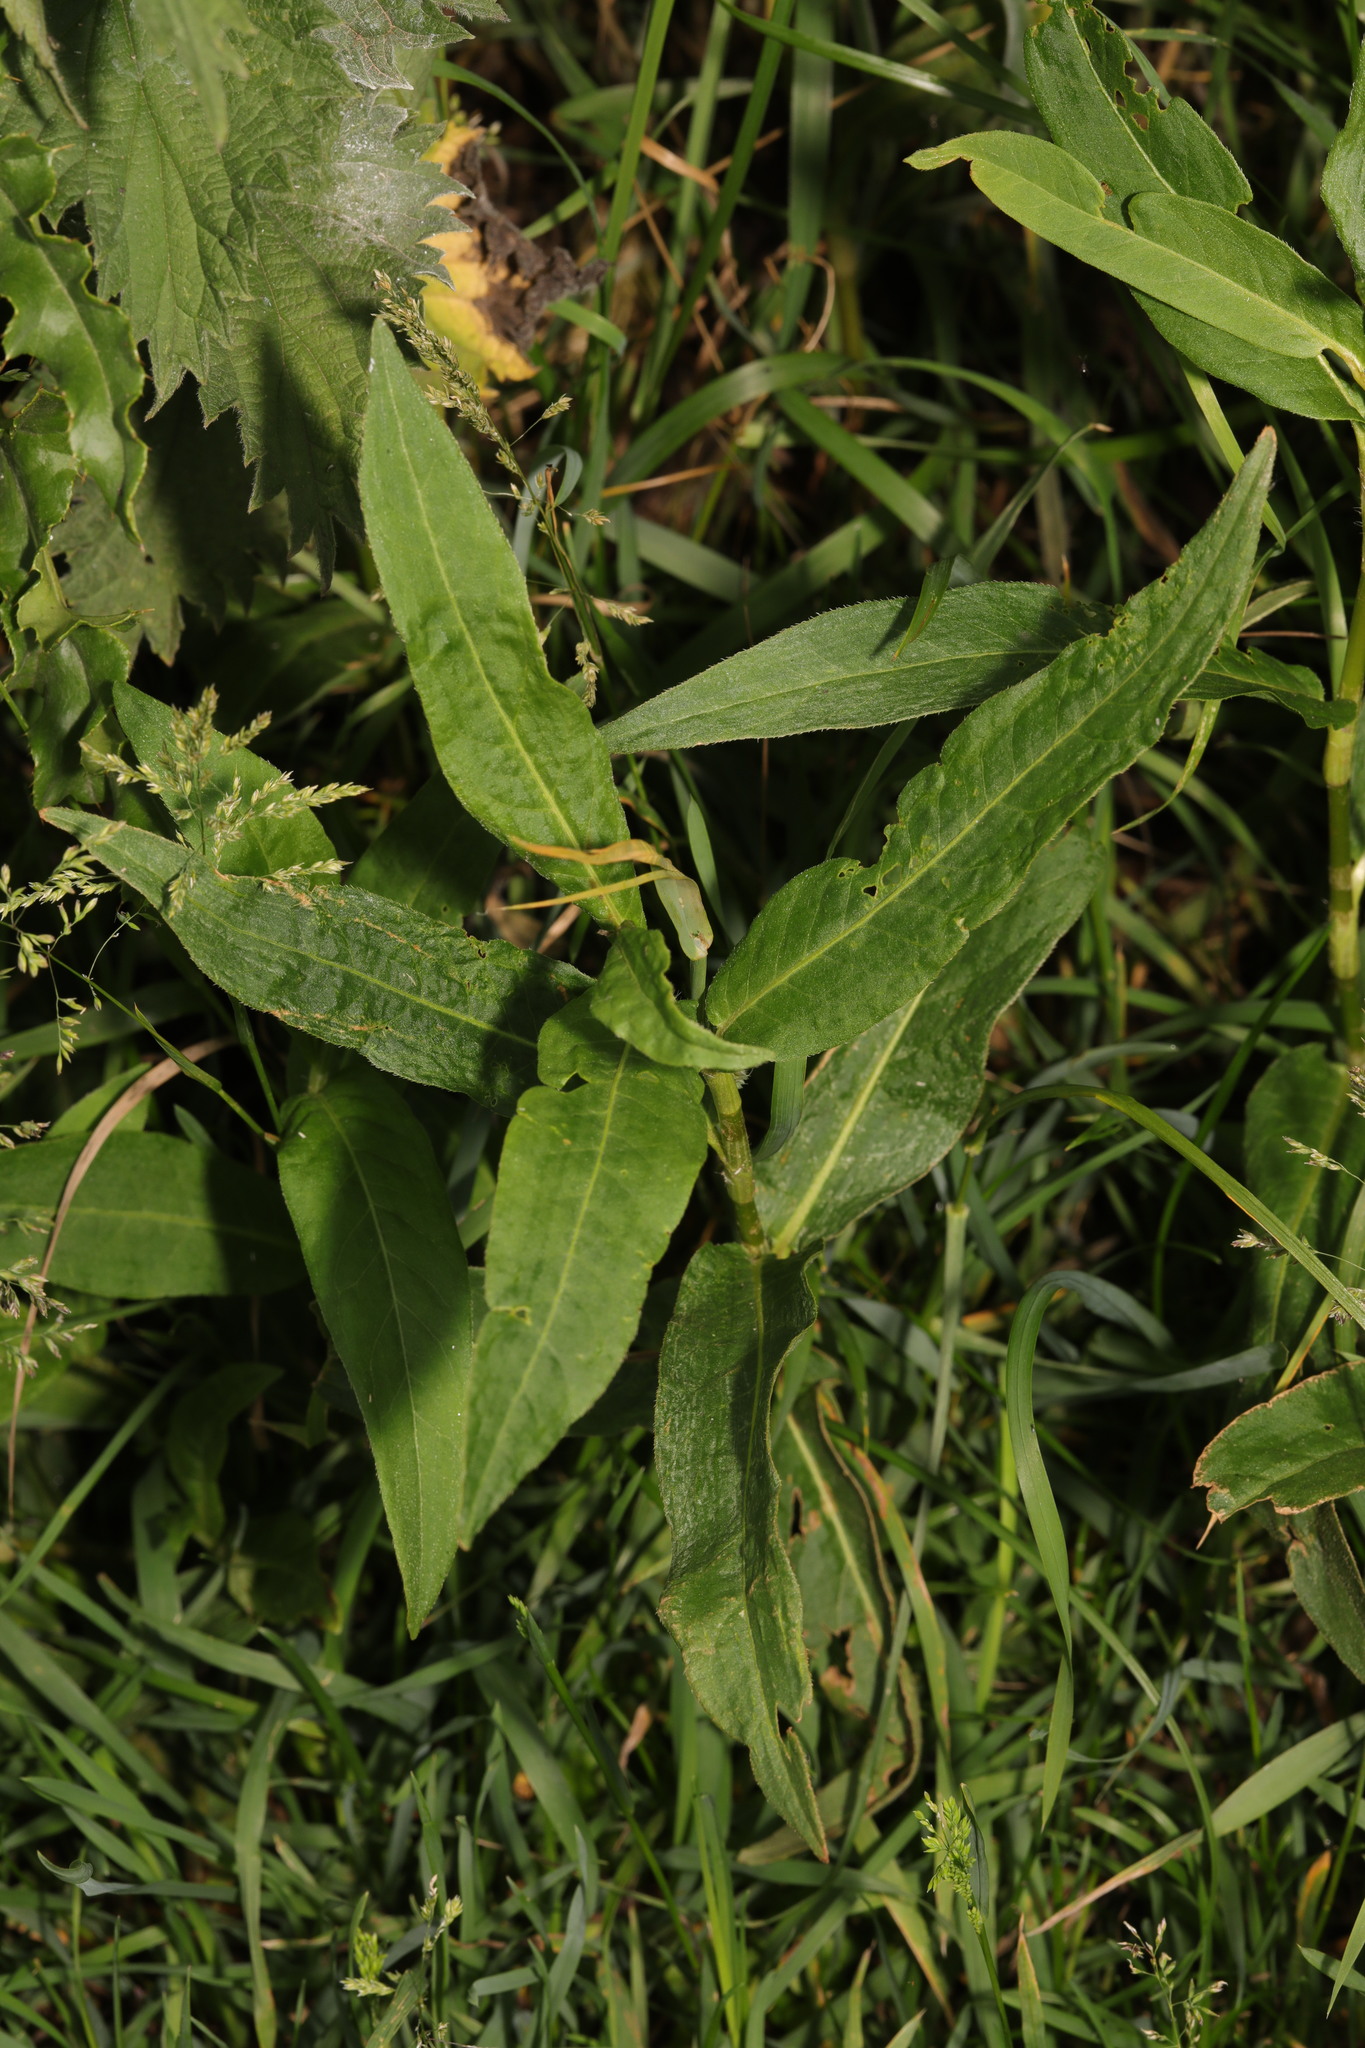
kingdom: Plantae
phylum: Tracheophyta
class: Magnoliopsida
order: Caryophyllales
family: Polygonaceae
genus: Persicaria
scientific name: Persicaria amphibia
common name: Amphibious bistort
